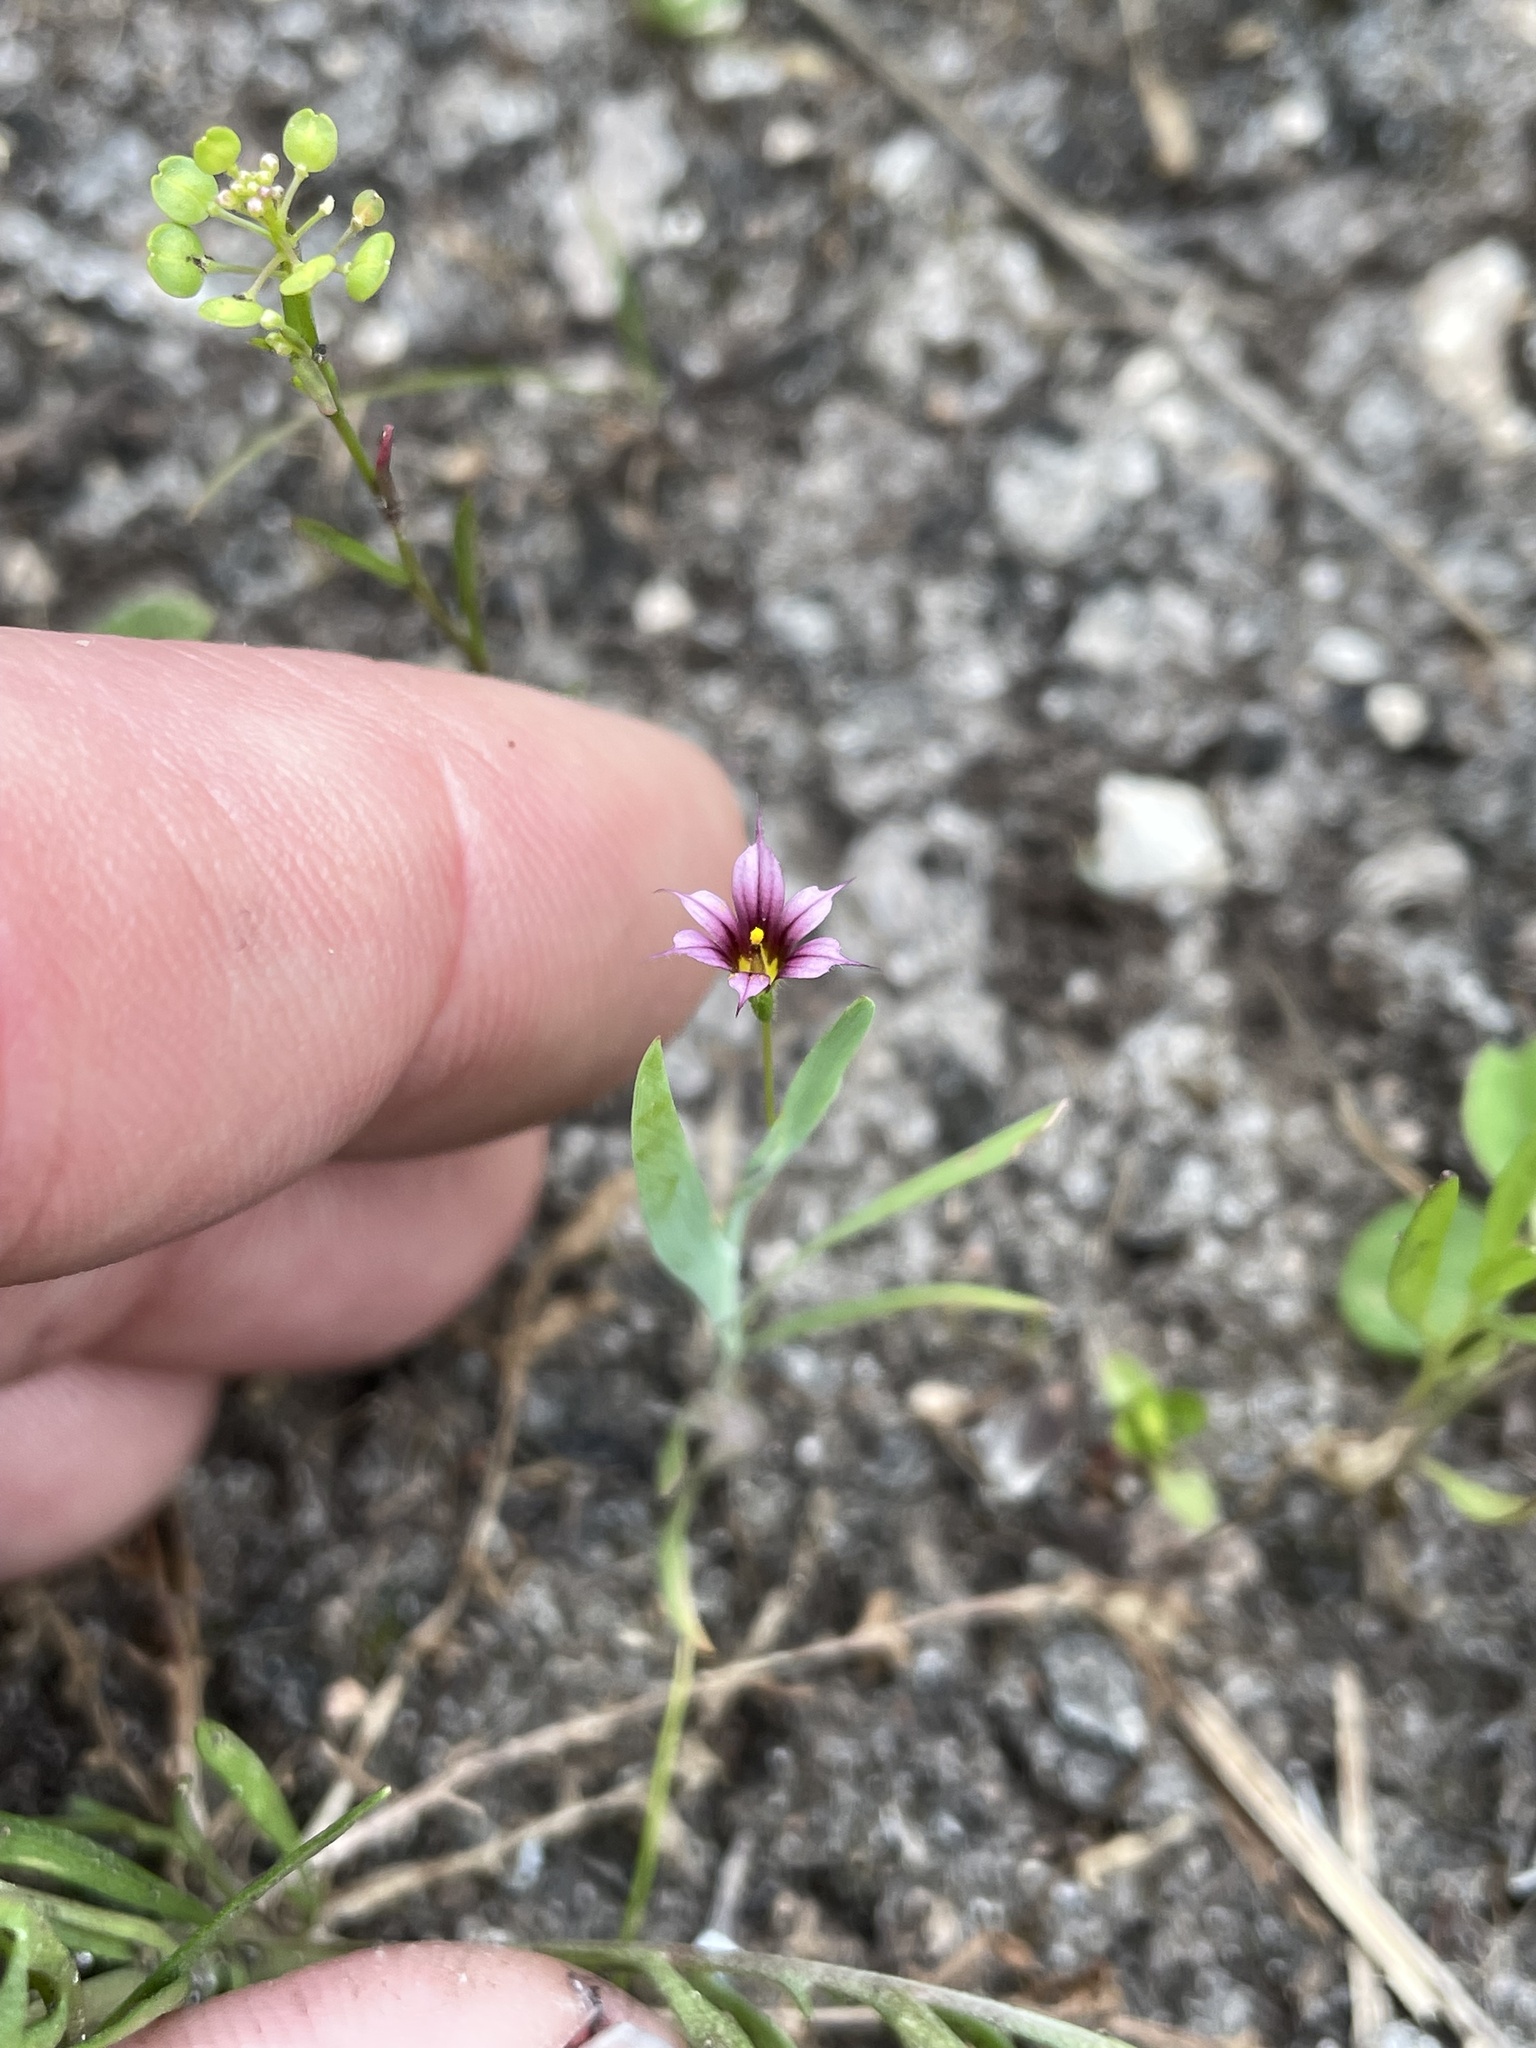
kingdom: Plantae
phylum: Tracheophyta
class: Liliopsida
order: Asparagales
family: Iridaceae
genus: Sisyrinchium
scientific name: Sisyrinchium minus
